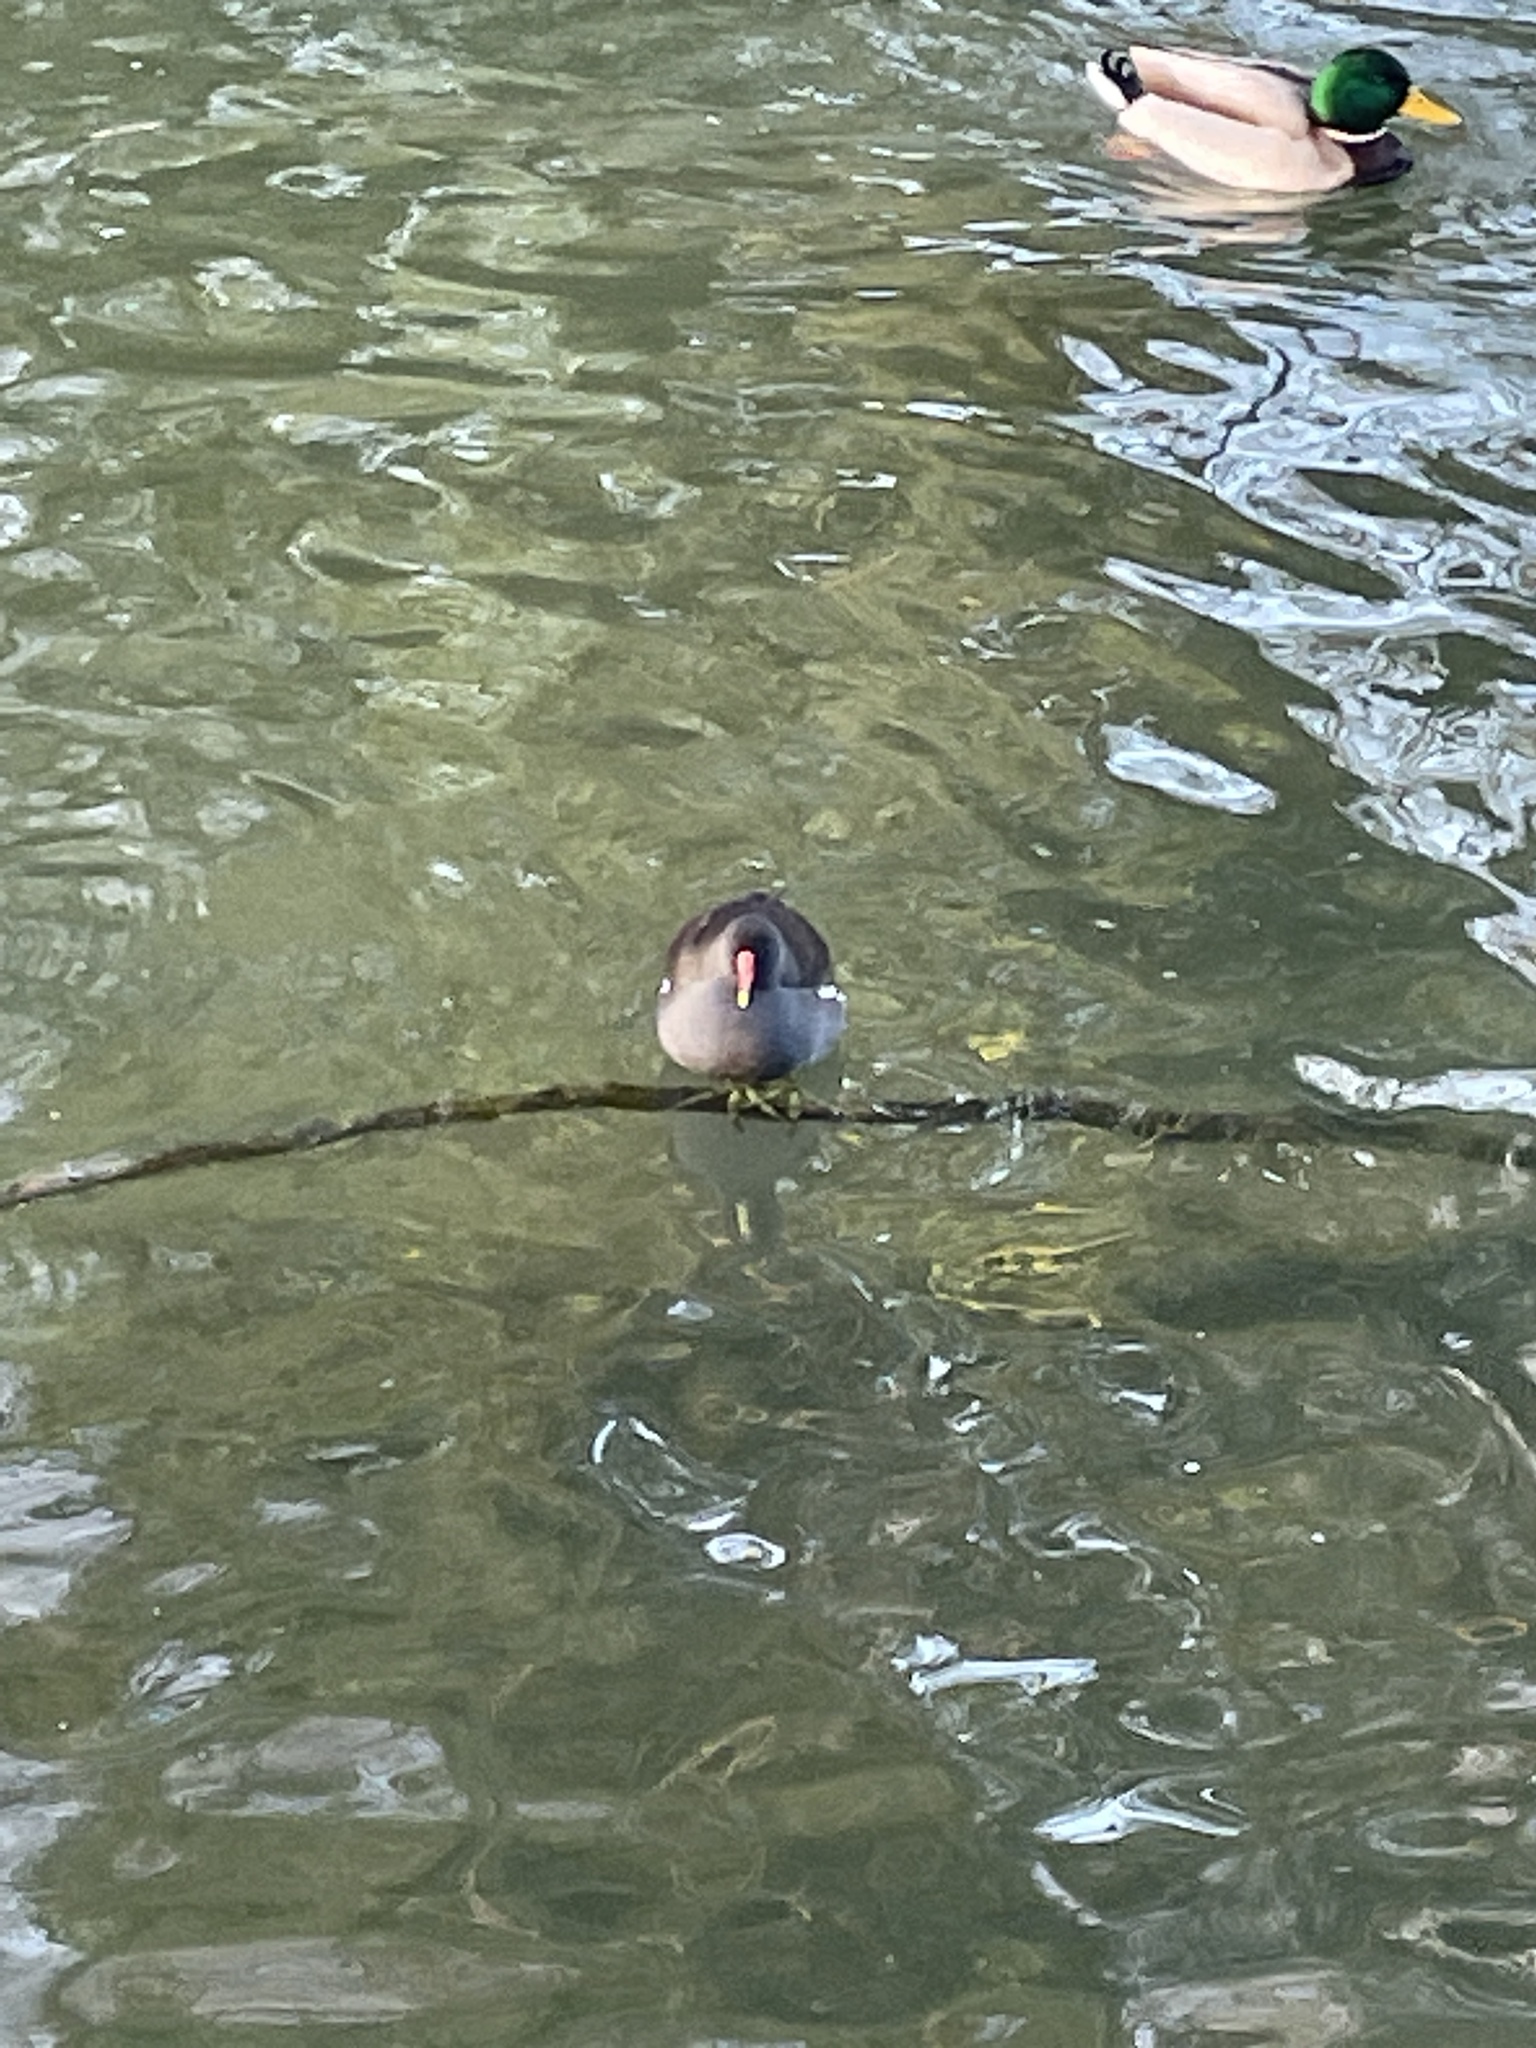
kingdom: Animalia
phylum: Chordata
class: Aves
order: Gruiformes
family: Rallidae
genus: Gallinula
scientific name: Gallinula chloropus
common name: Common moorhen
